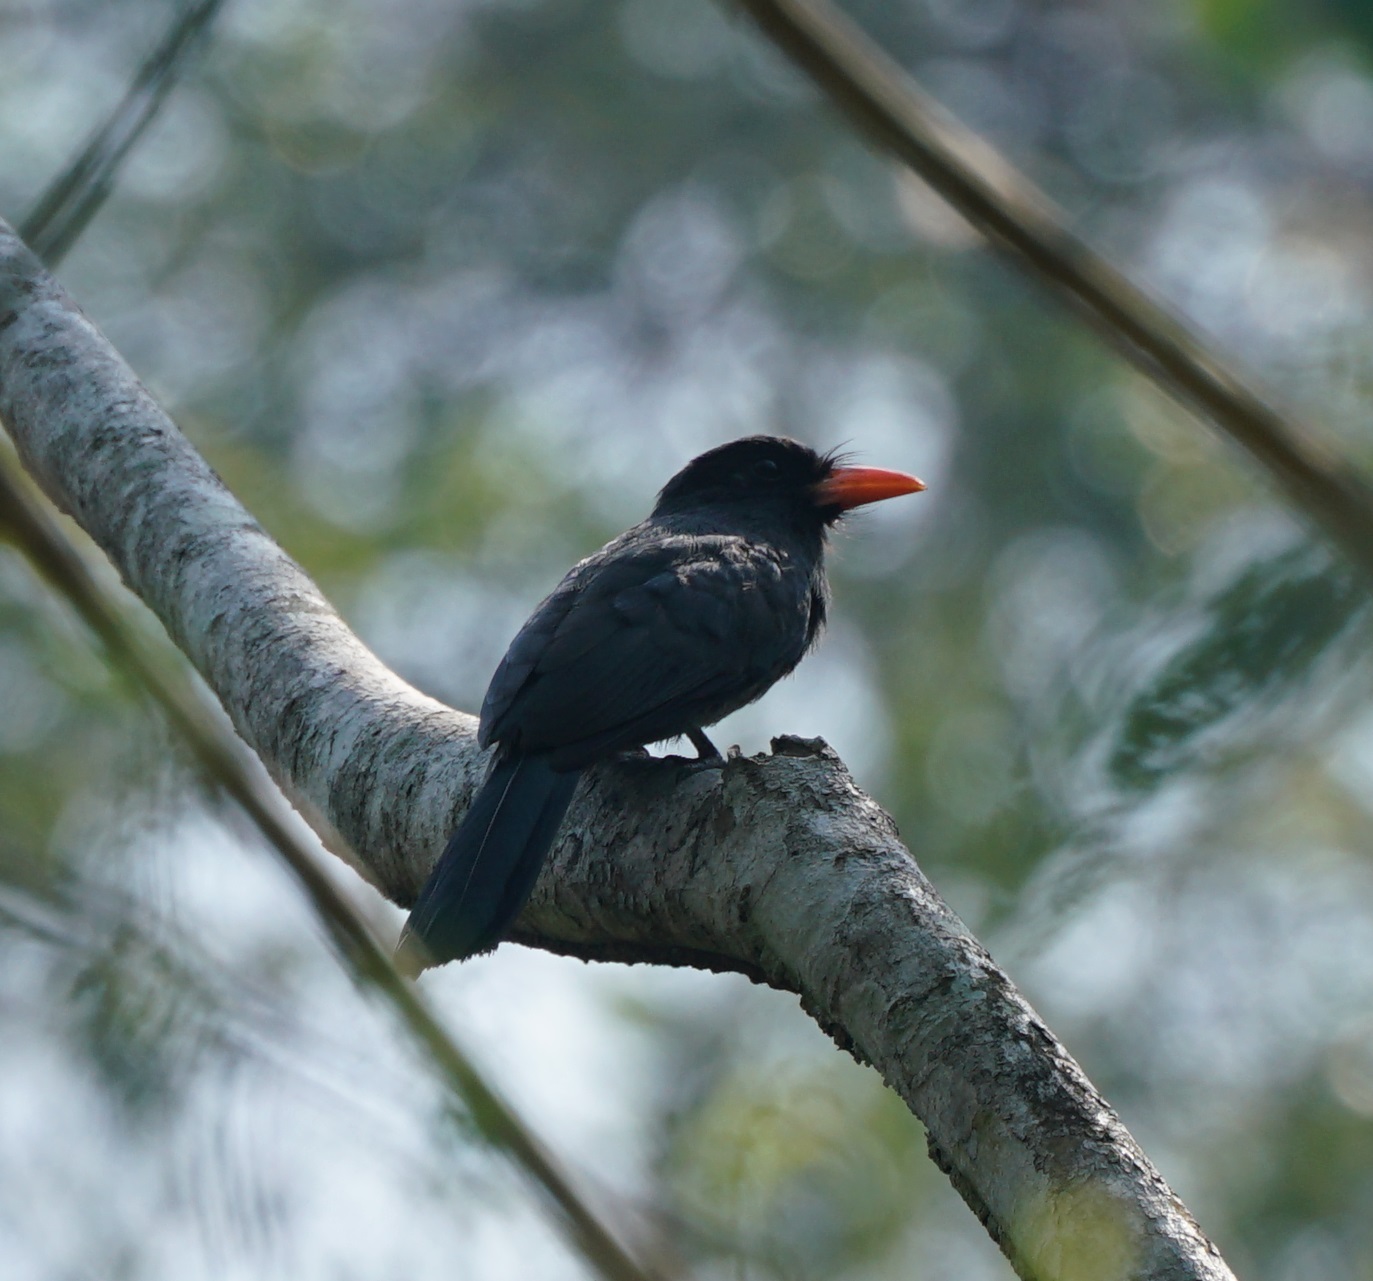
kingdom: Animalia
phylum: Chordata
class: Aves
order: Piciformes
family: Bucconidae
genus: Monasa
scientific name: Monasa nigrifrons
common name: Black-fronted nunbird
